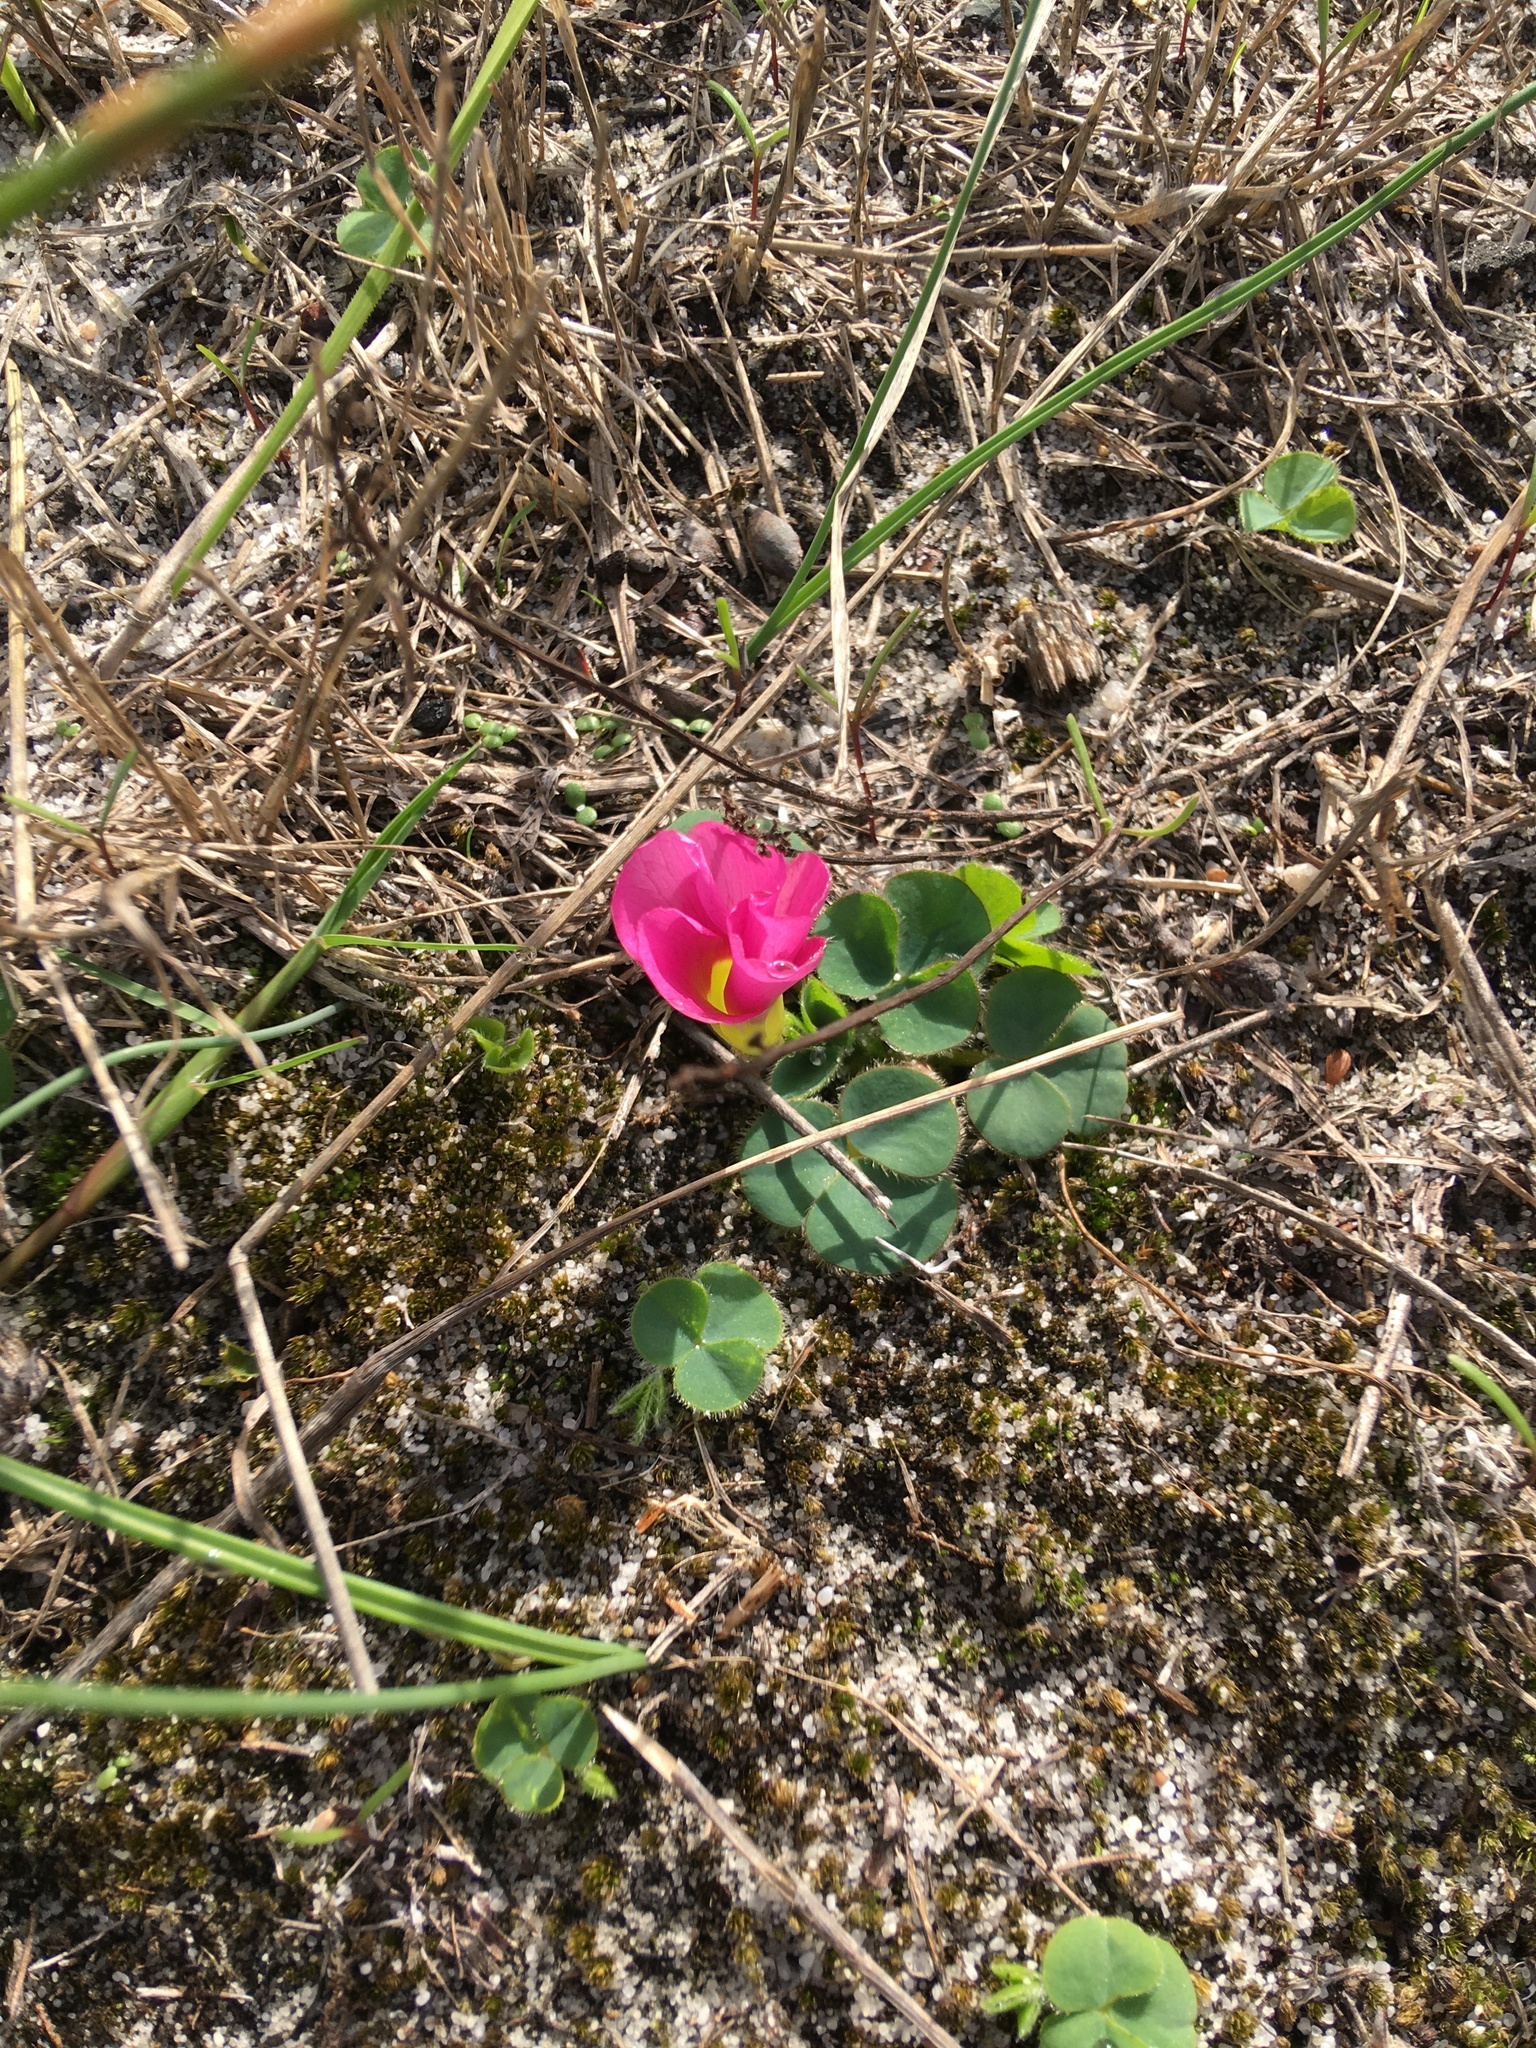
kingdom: Plantae
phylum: Tracheophyta
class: Magnoliopsida
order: Oxalidales
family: Oxalidaceae
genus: Oxalis
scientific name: Oxalis purpurea
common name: Purple woodsorrel
